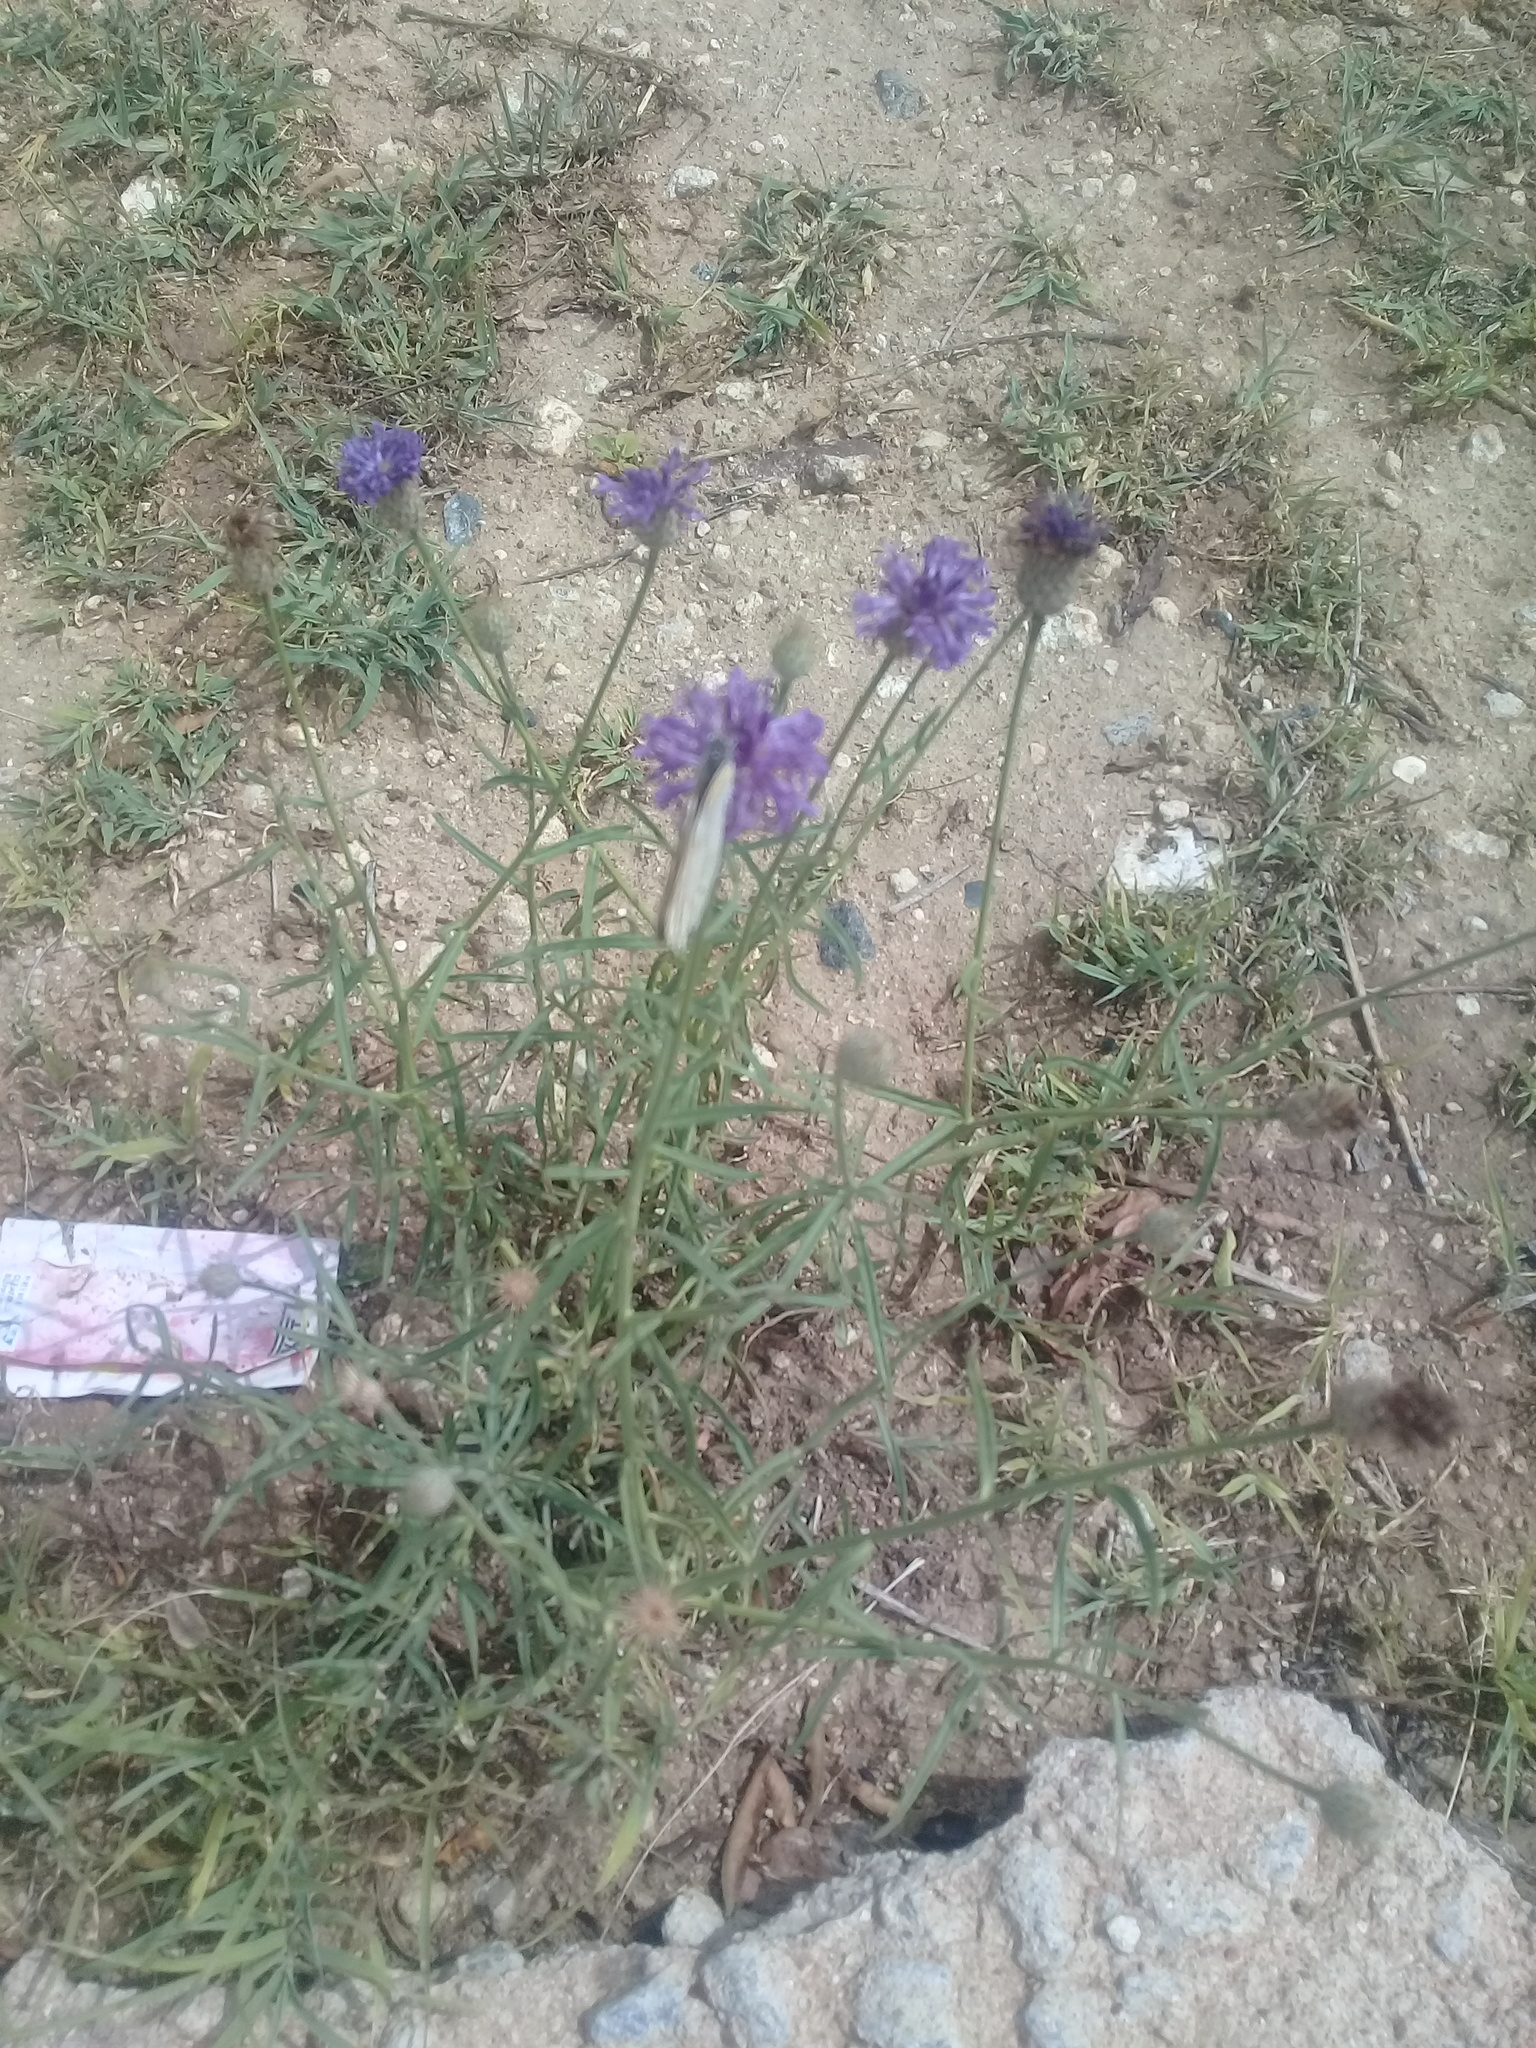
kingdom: Animalia
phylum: Arthropoda
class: Insecta
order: Lepidoptera
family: Pieridae
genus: Colotis
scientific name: Colotis annae
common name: Scarlet tip
